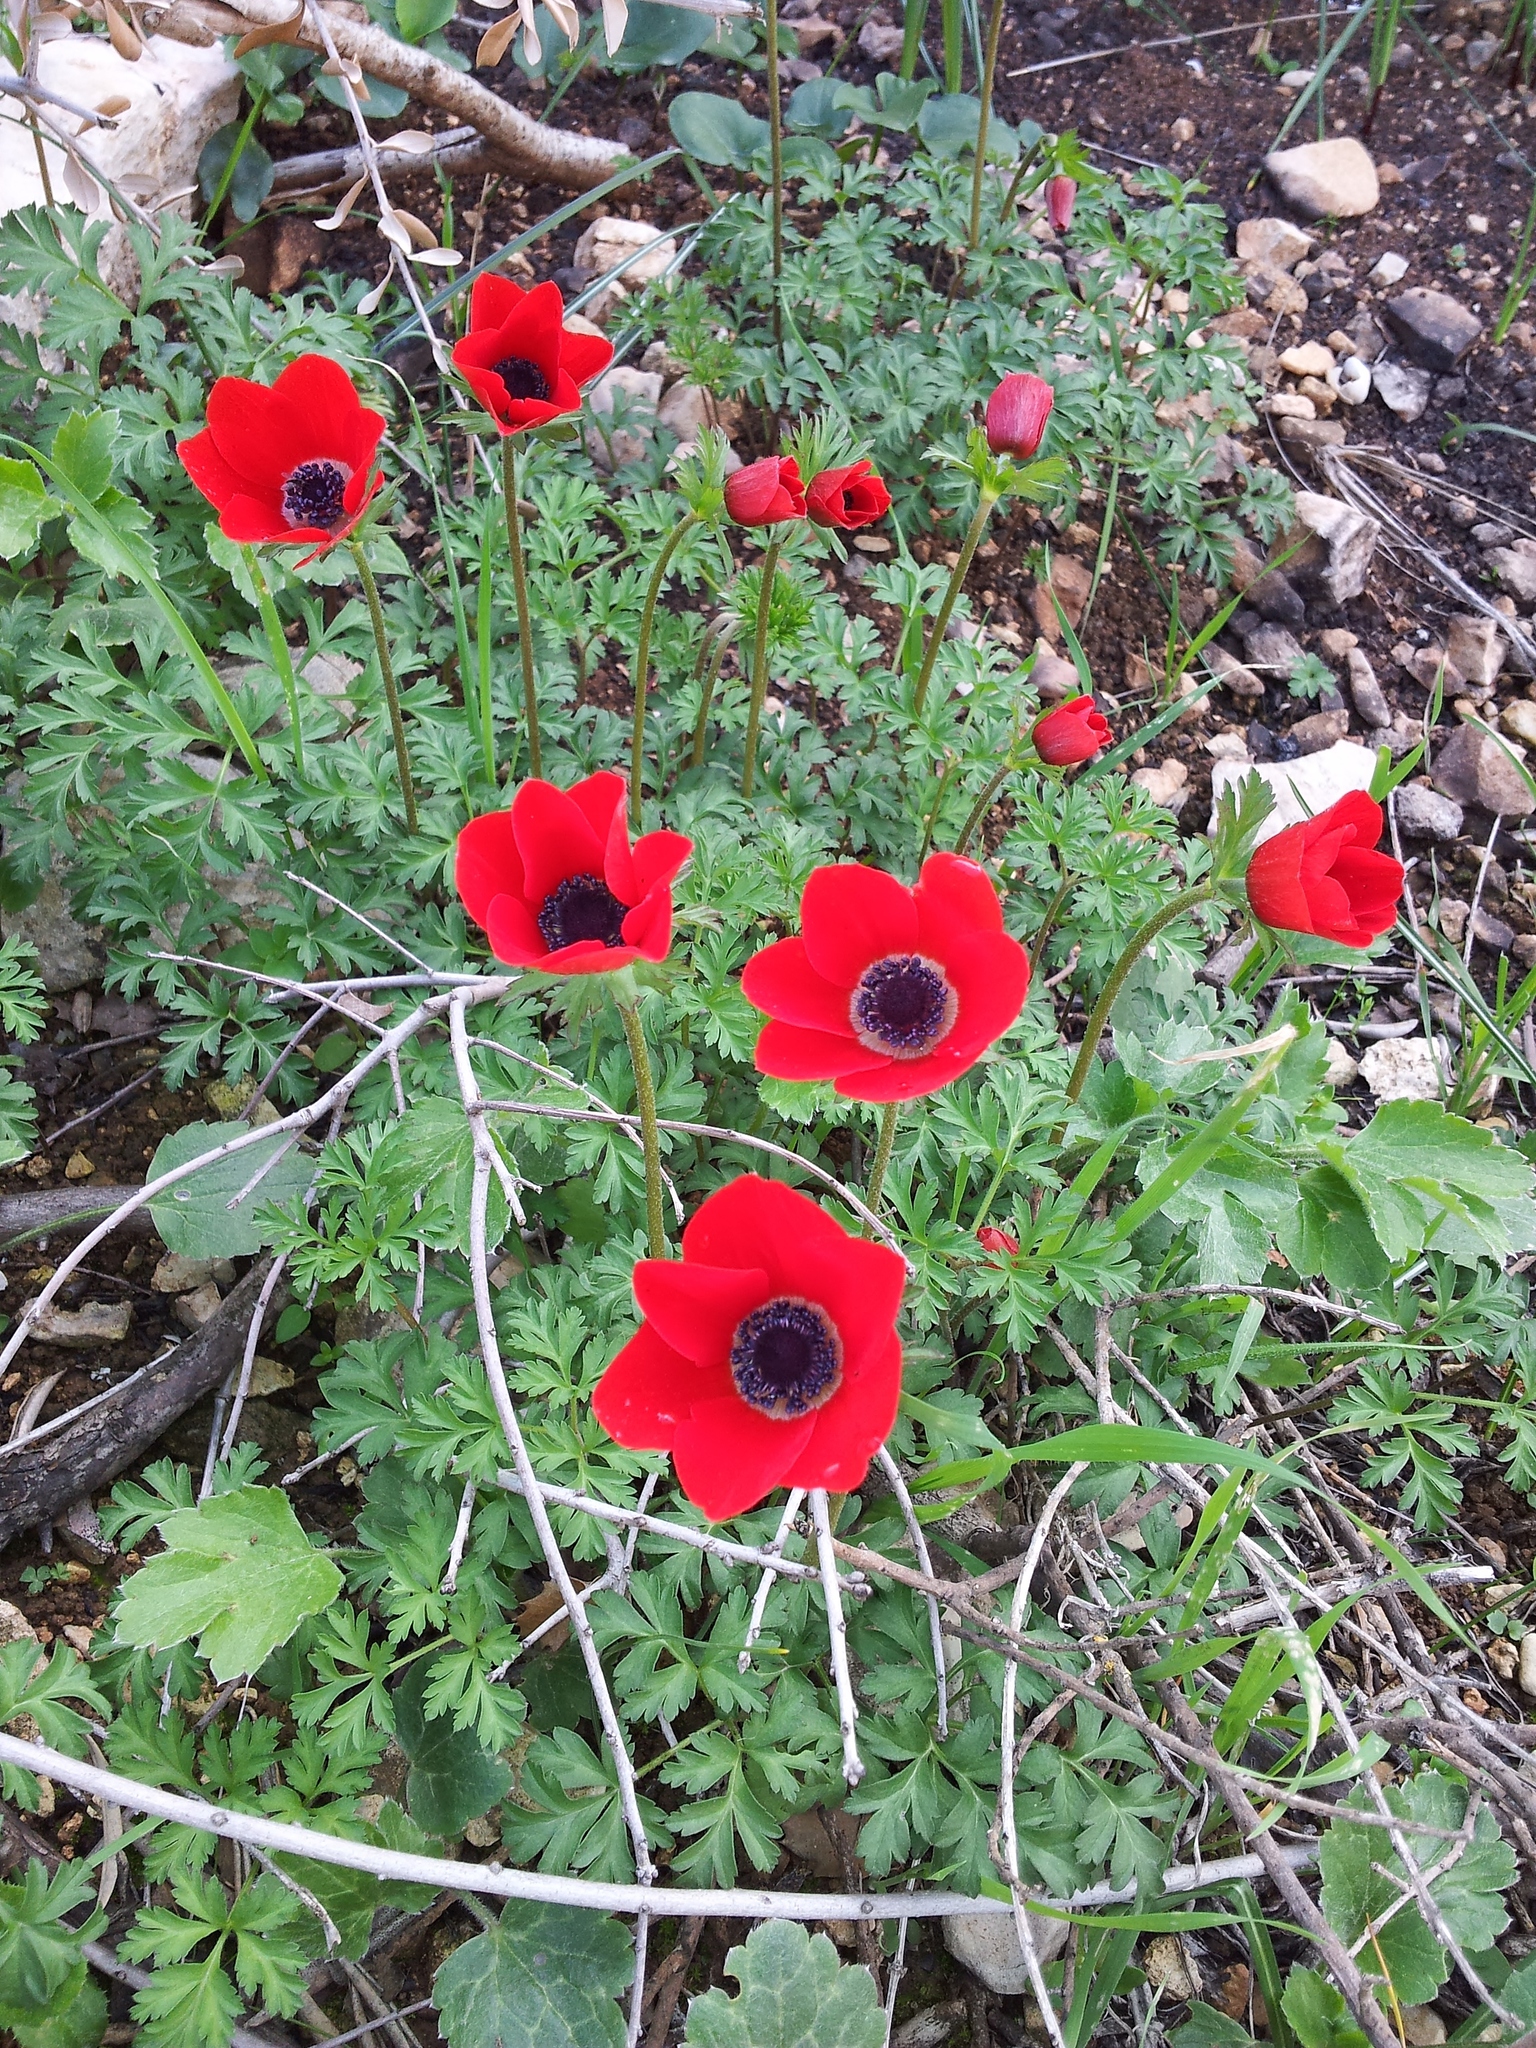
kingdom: Plantae
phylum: Tracheophyta
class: Magnoliopsida
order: Ranunculales
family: Ranunculaceae
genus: Anemone
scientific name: Anemone coronaria
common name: Poppy anemone
